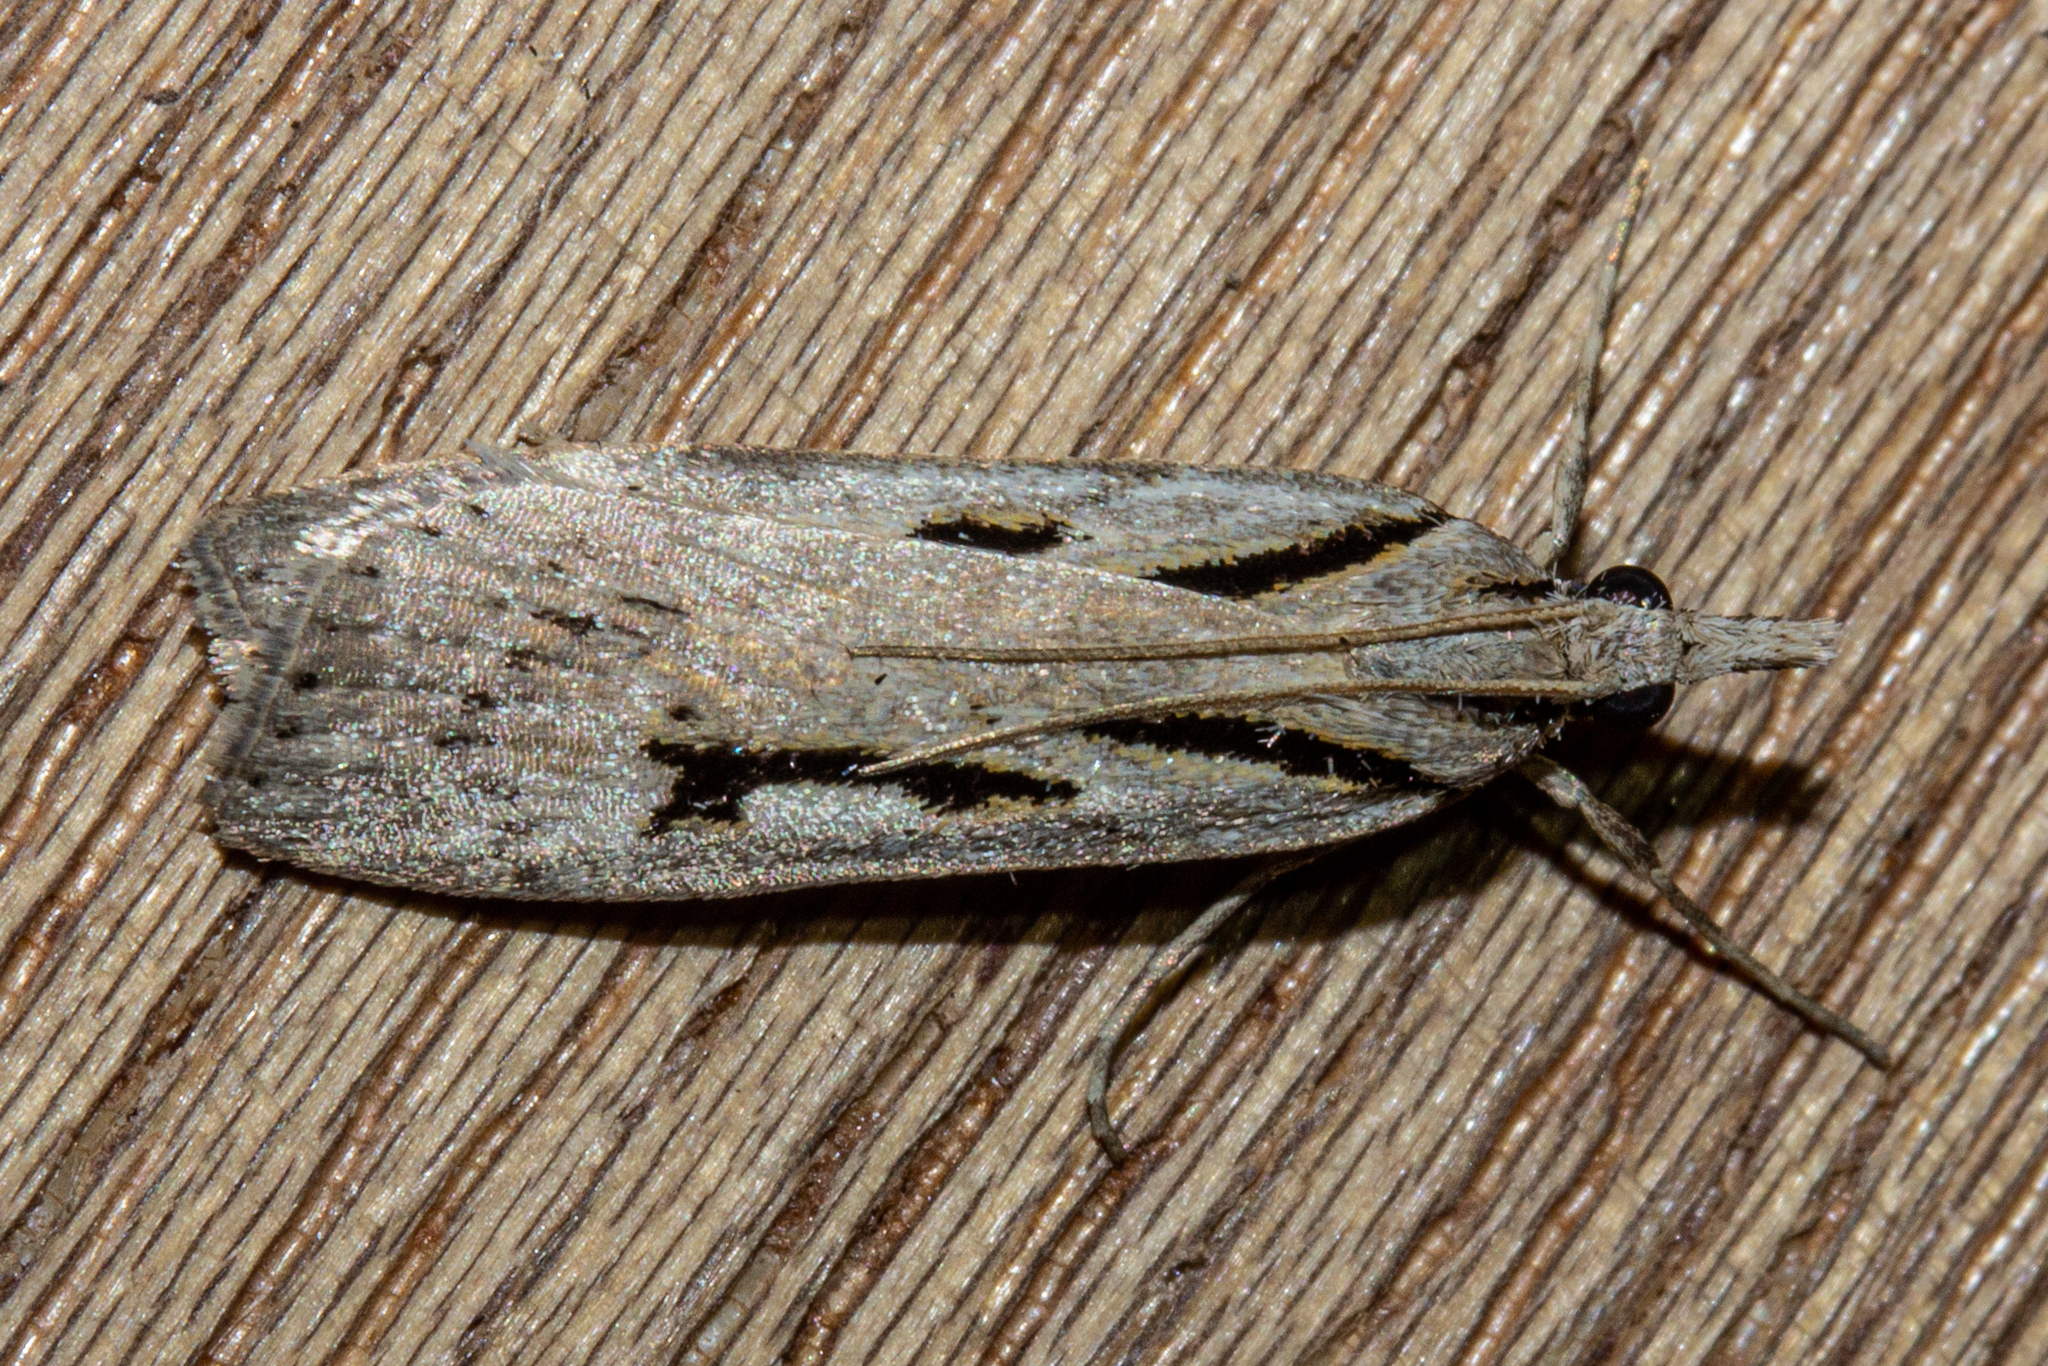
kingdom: Animalia
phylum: Arthropoda
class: Insecta
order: Lepidoptera
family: Crambidae
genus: Scoparia
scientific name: Scoparia rotuellus
